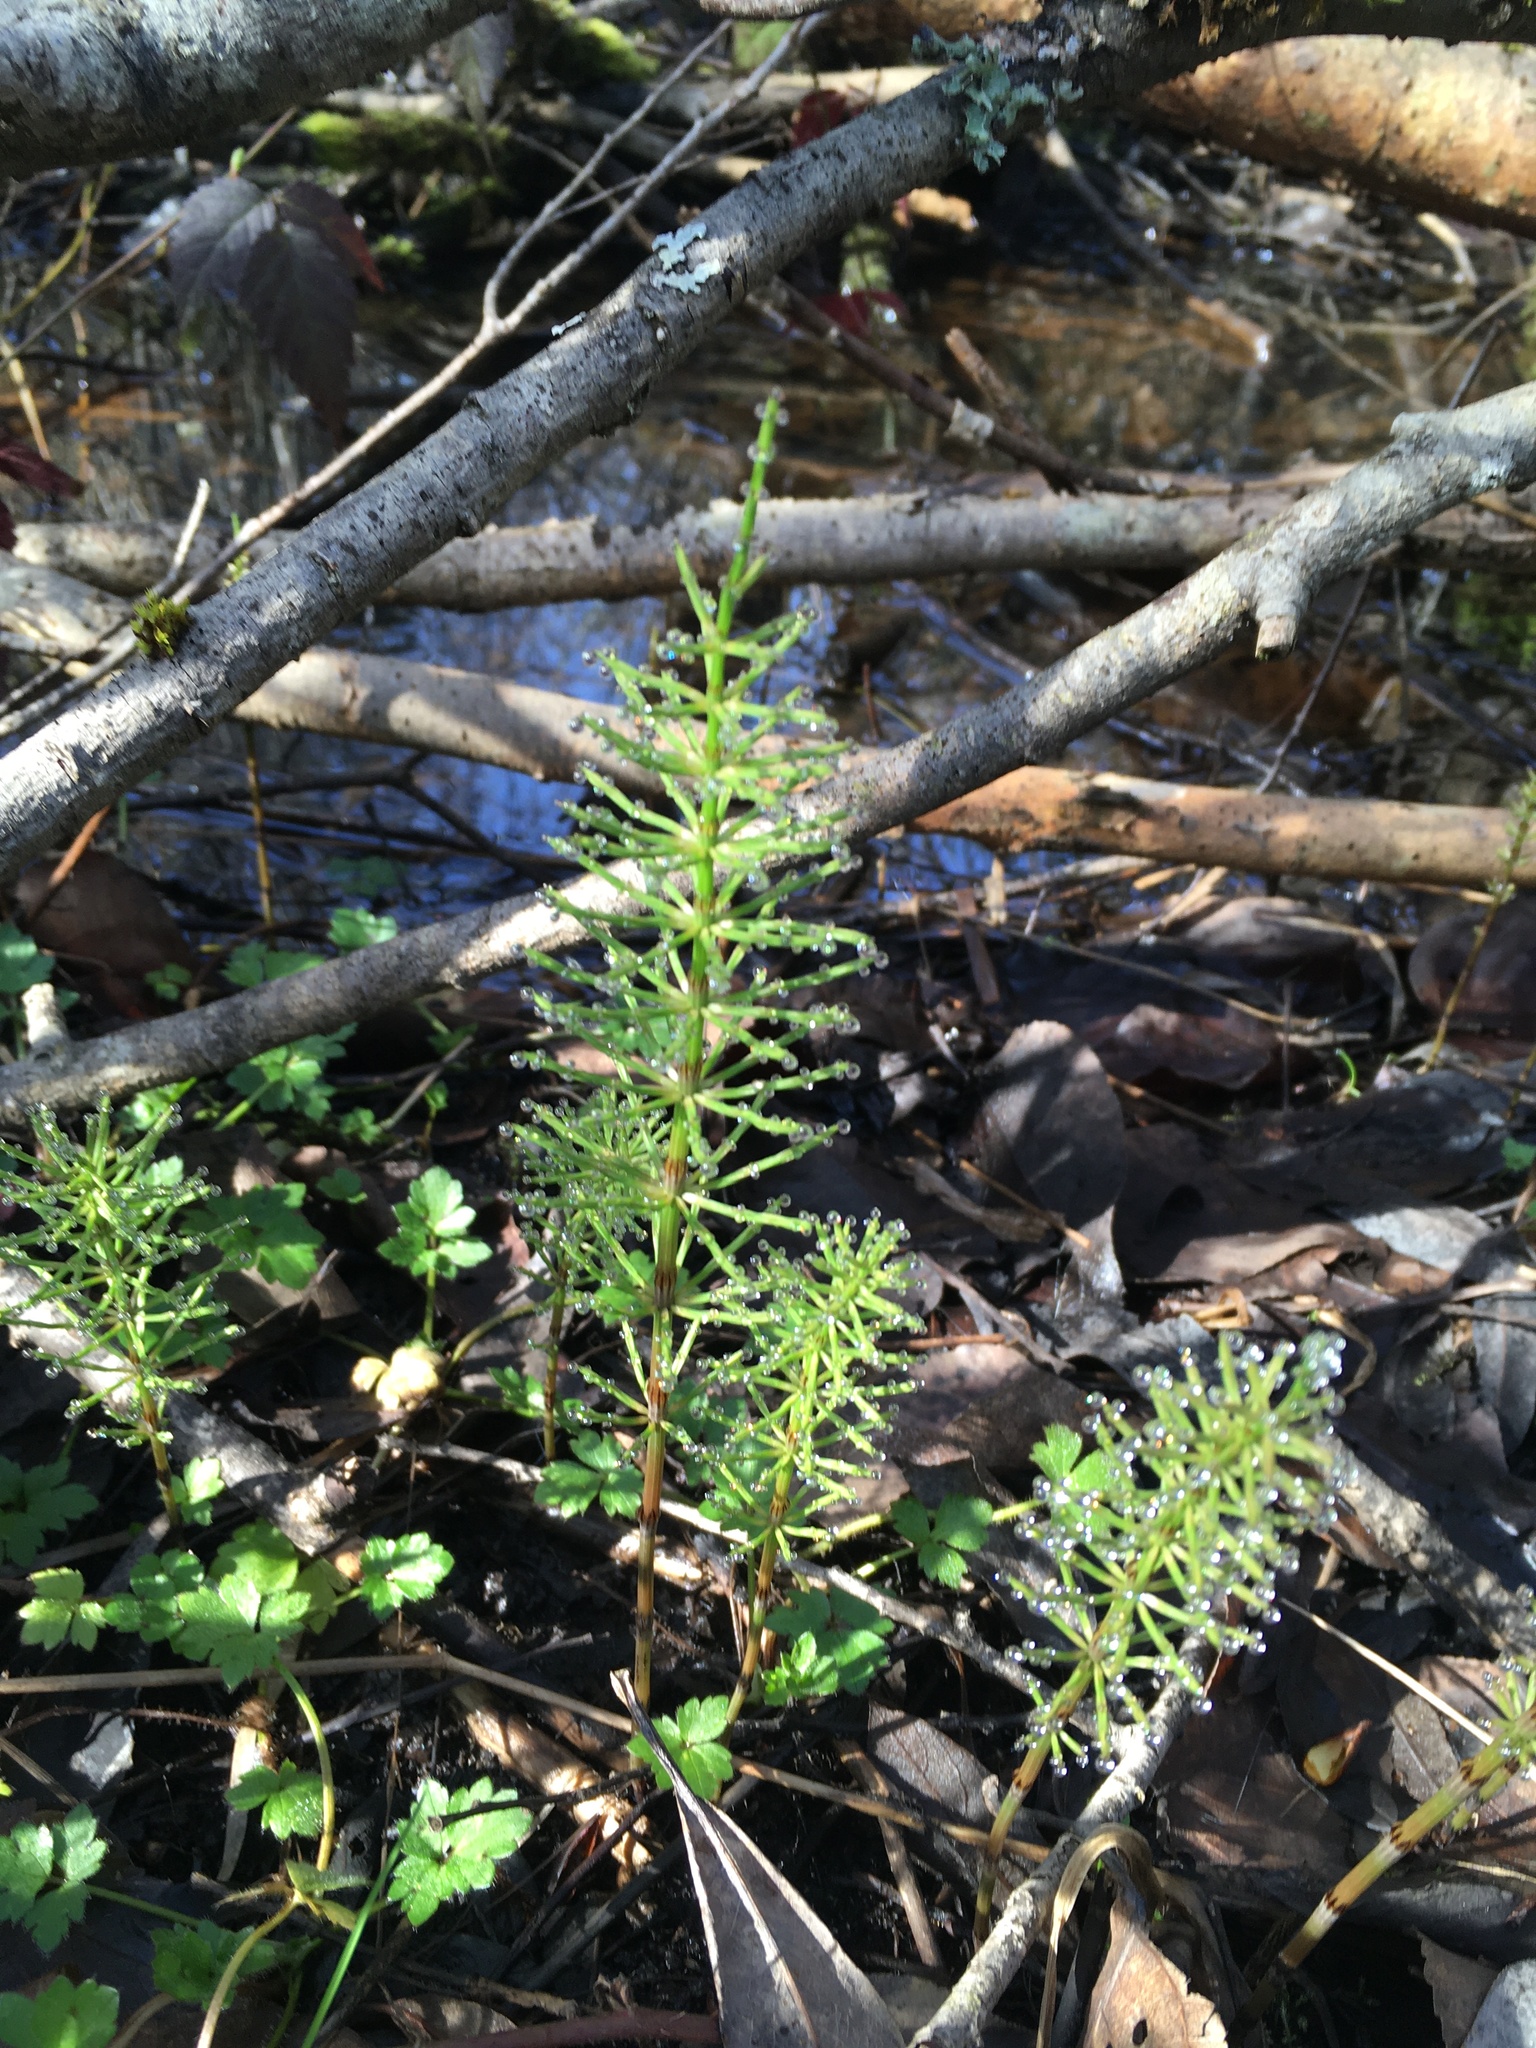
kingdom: Plantae
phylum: Tracheophyta
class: Polypodiopsida
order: Equisetales
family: Equisetaceae
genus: Equisetum
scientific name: Equisetum arvense
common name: Field horsetail
